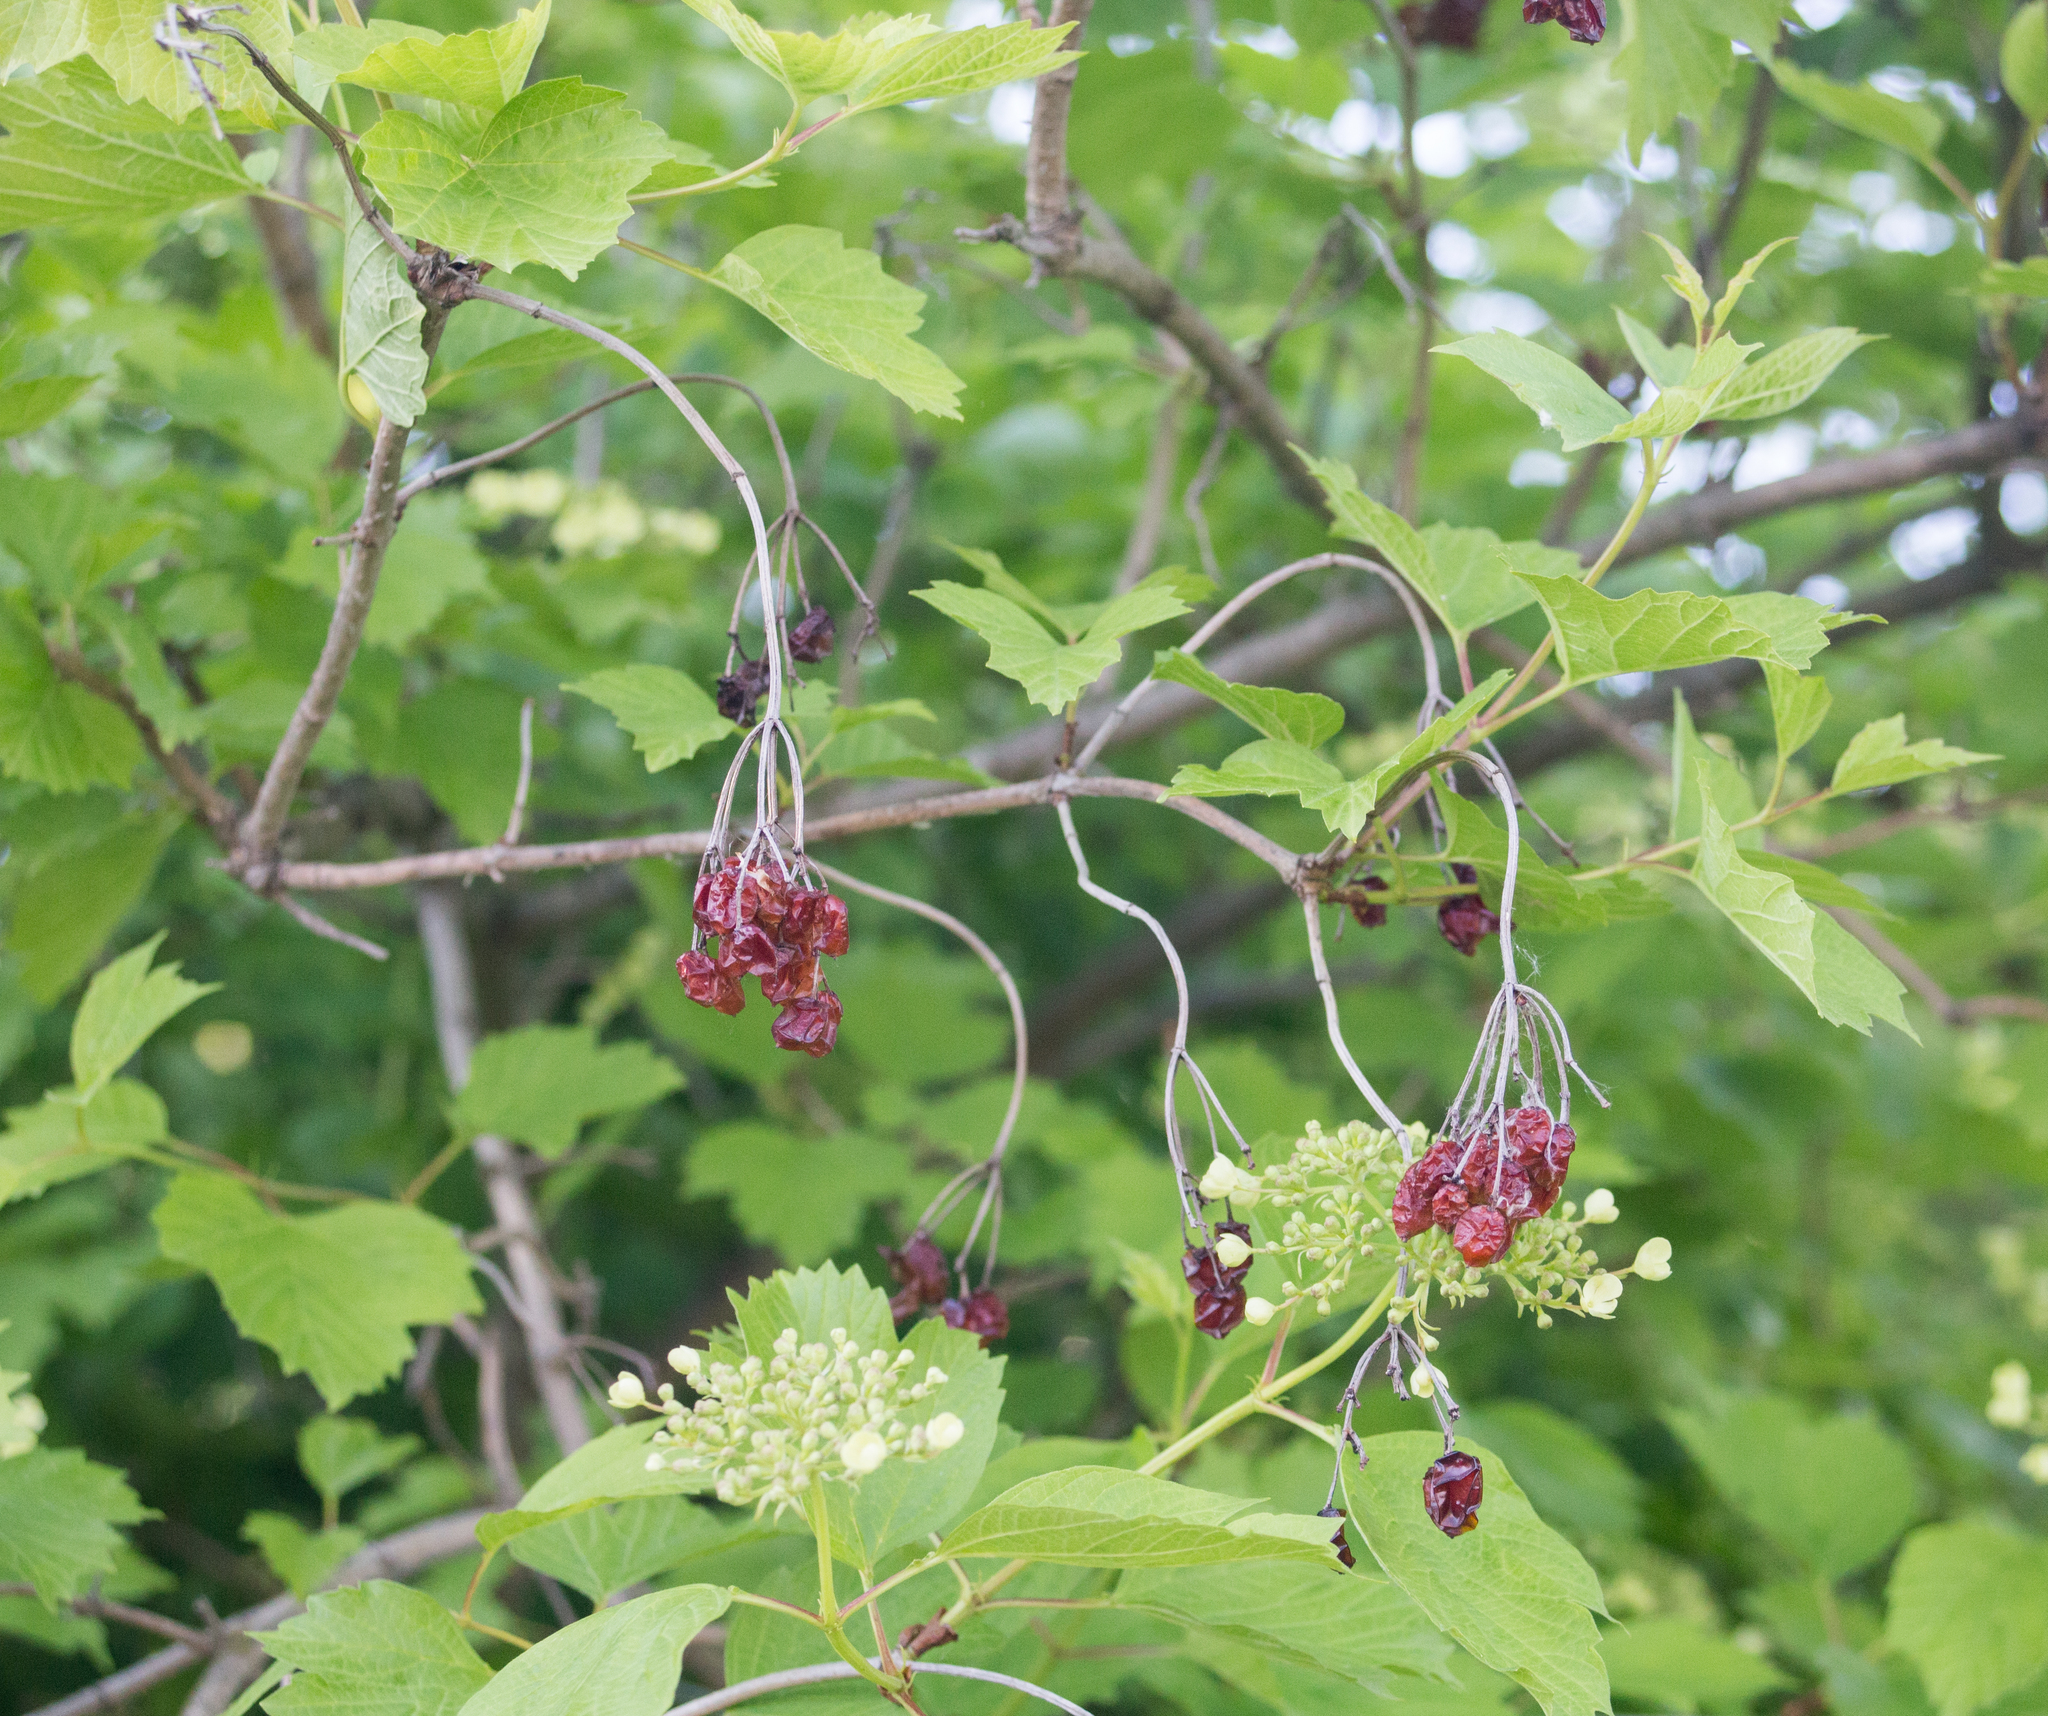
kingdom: Plantae
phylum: Tracheophyta
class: Magnoliopsida
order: Dipsacales
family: Viburnaceae
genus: Viburnum
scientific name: Viburnum opulus
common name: Guelder-rose
